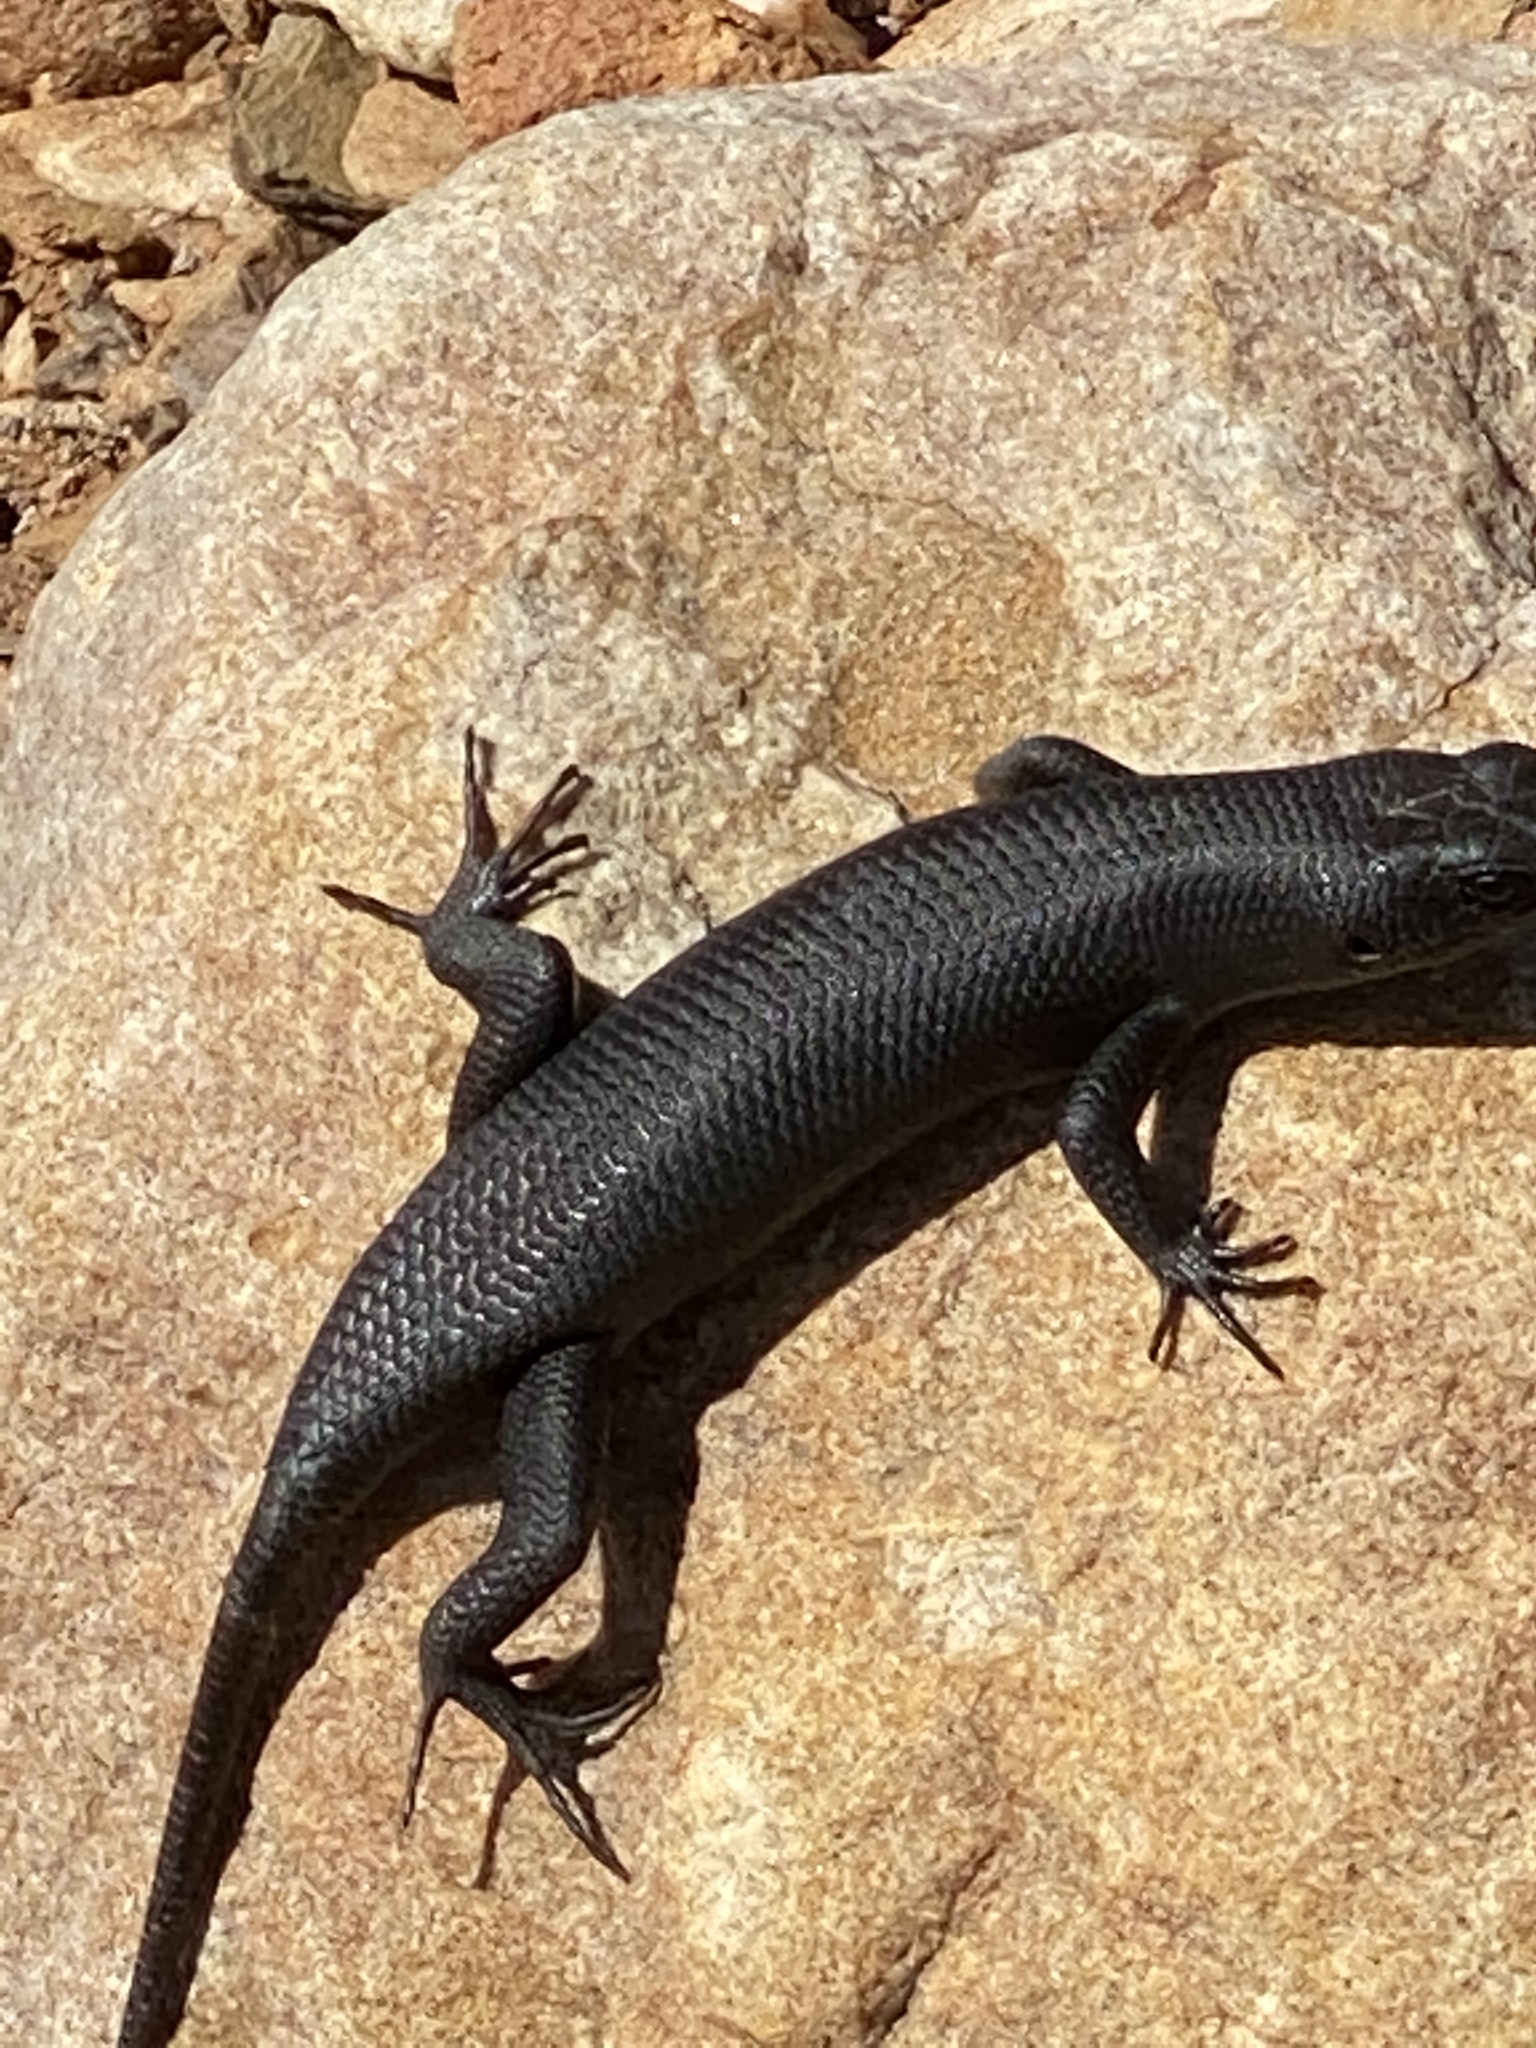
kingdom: Animalia
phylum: Chordata
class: Squamata
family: Scincidae
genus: Trachylepis
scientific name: Trachylepis sulcata
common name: Western rock skink
